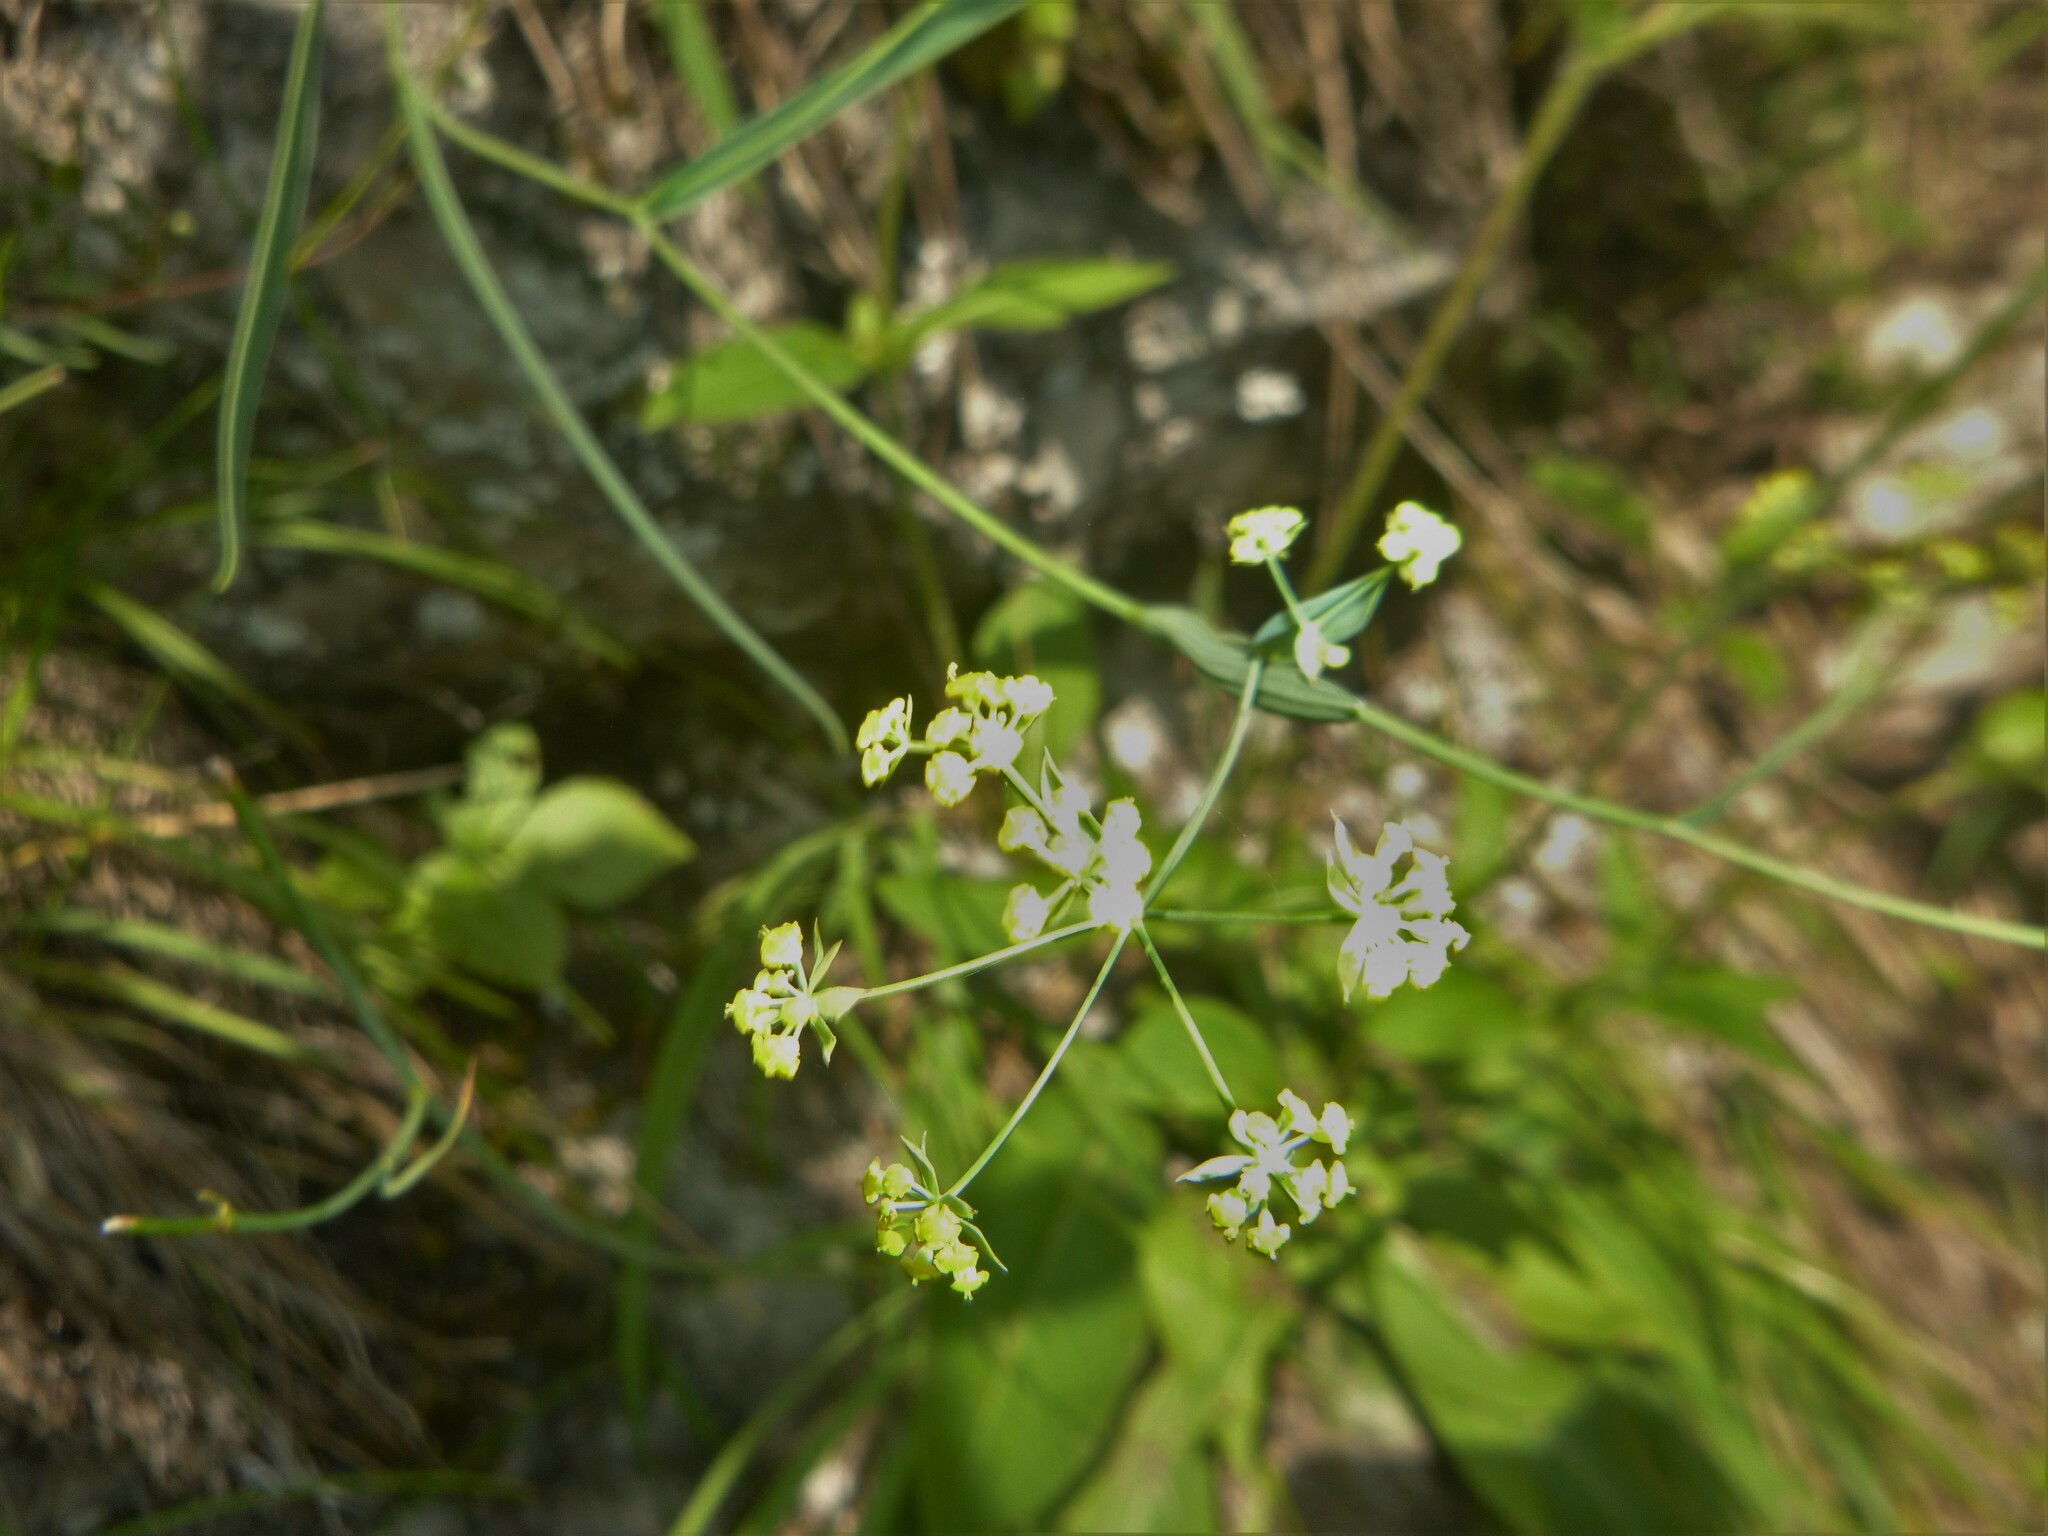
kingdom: Plantae
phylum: Tracheophyta
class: Magnoliopsida
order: Apiales
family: Apiaceae
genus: Bupleurum
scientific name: Bupleurum falcatum
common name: Sickle-leaved hare's-ear
